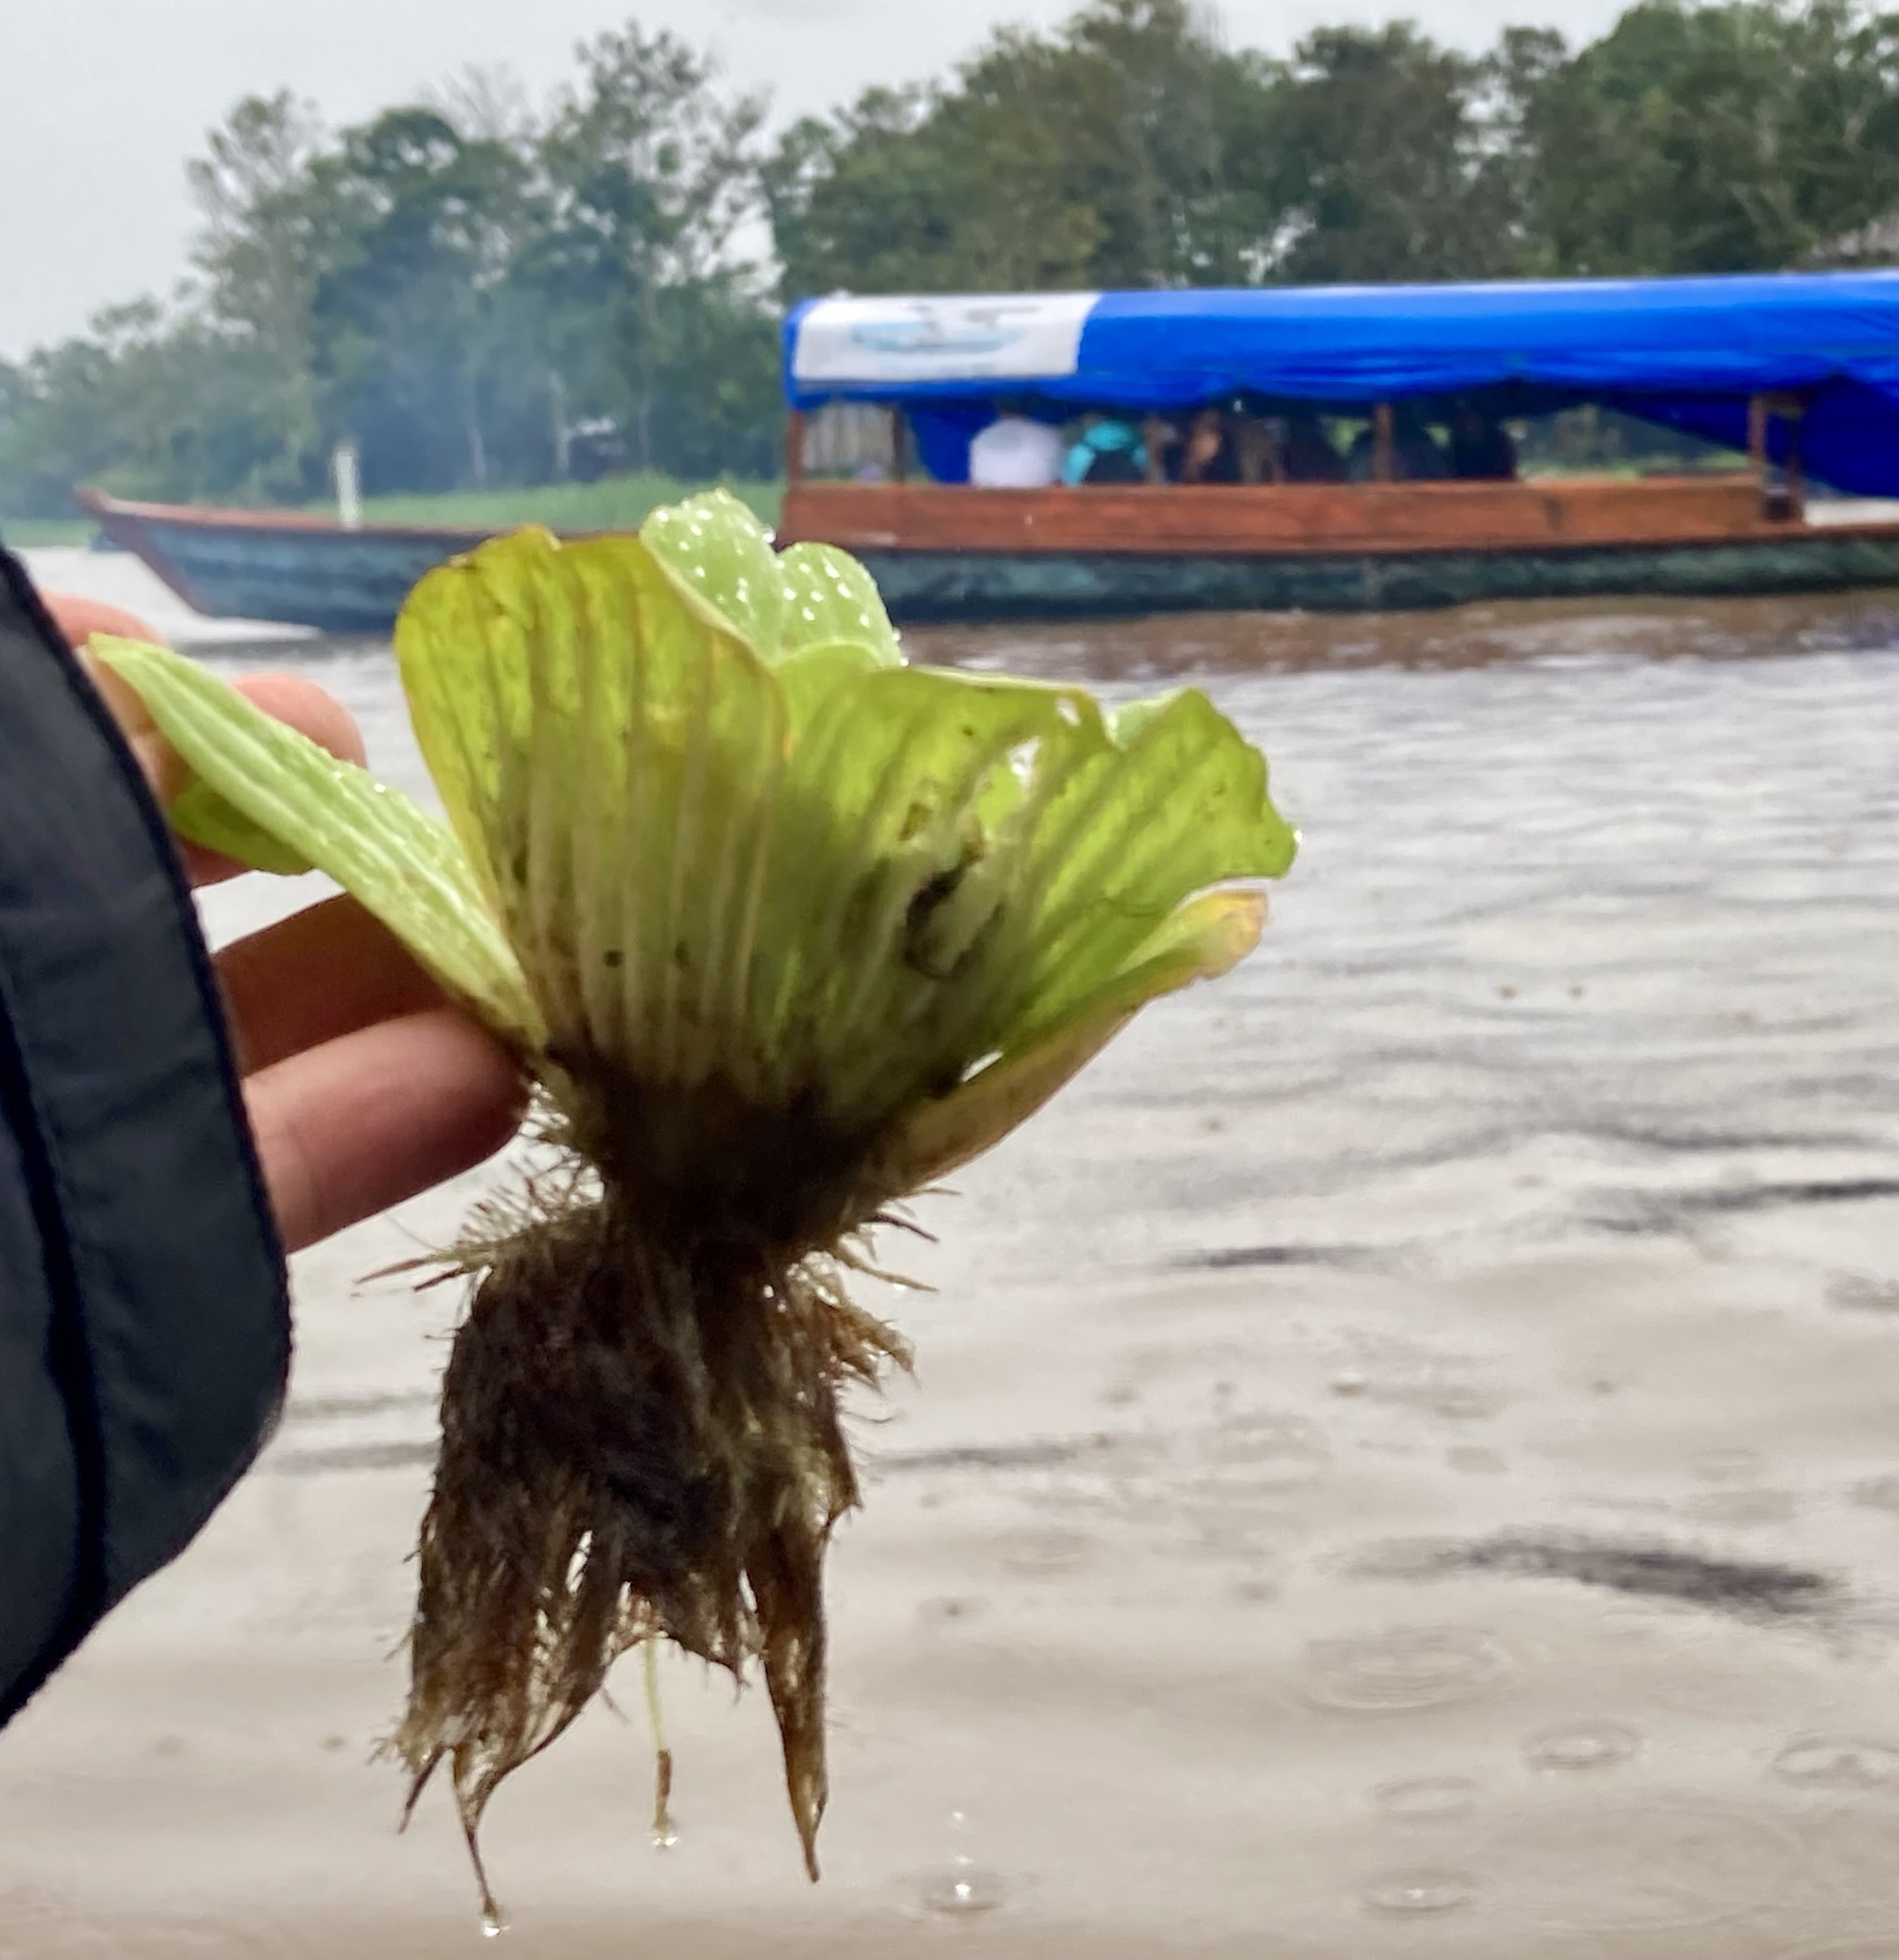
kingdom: Plantae
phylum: Tracheophyta
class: Liliopsida
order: Alismatales
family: Araceae
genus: Pistia
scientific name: Pistia stratiotes
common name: Water lettuce
